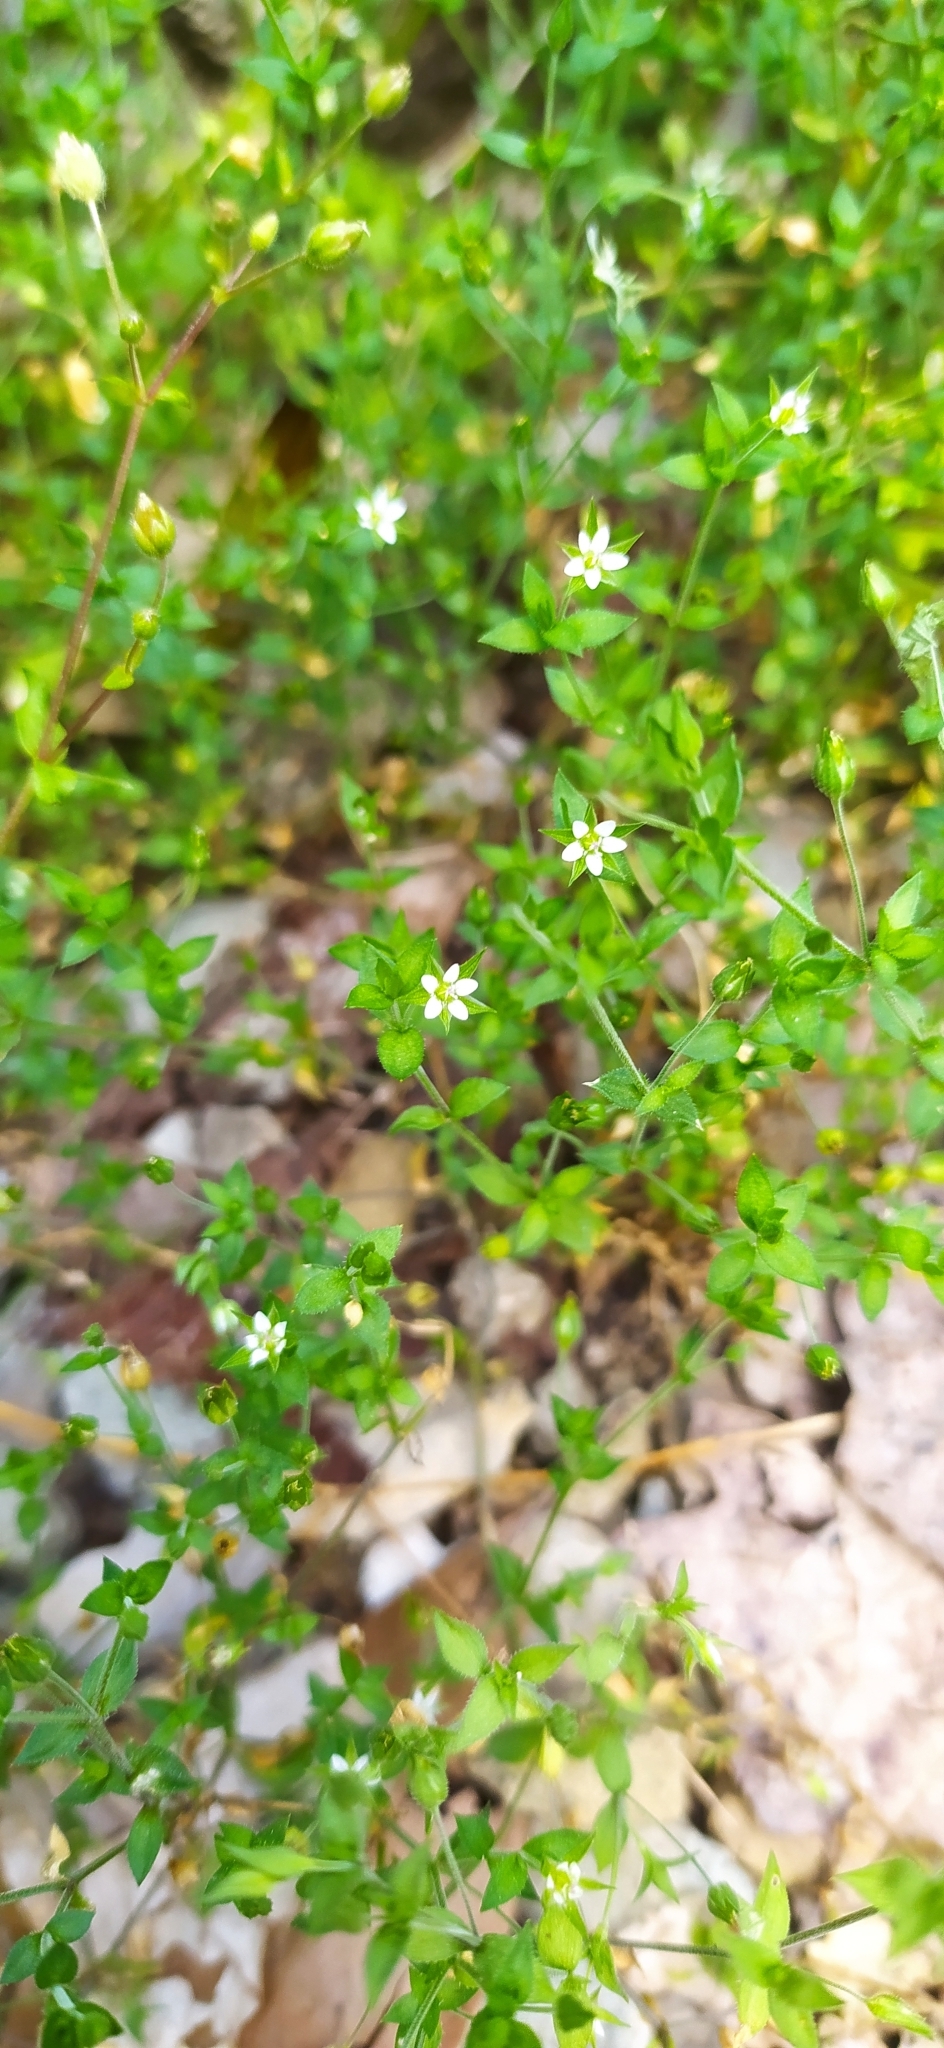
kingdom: Plantae
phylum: Tracheophyta
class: Magnoliopsida
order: Caryophyllales
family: Caryophyllaceae
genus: Arenaria
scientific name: Arenaria serpyllifolia
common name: Thyme-leaved sandwort
